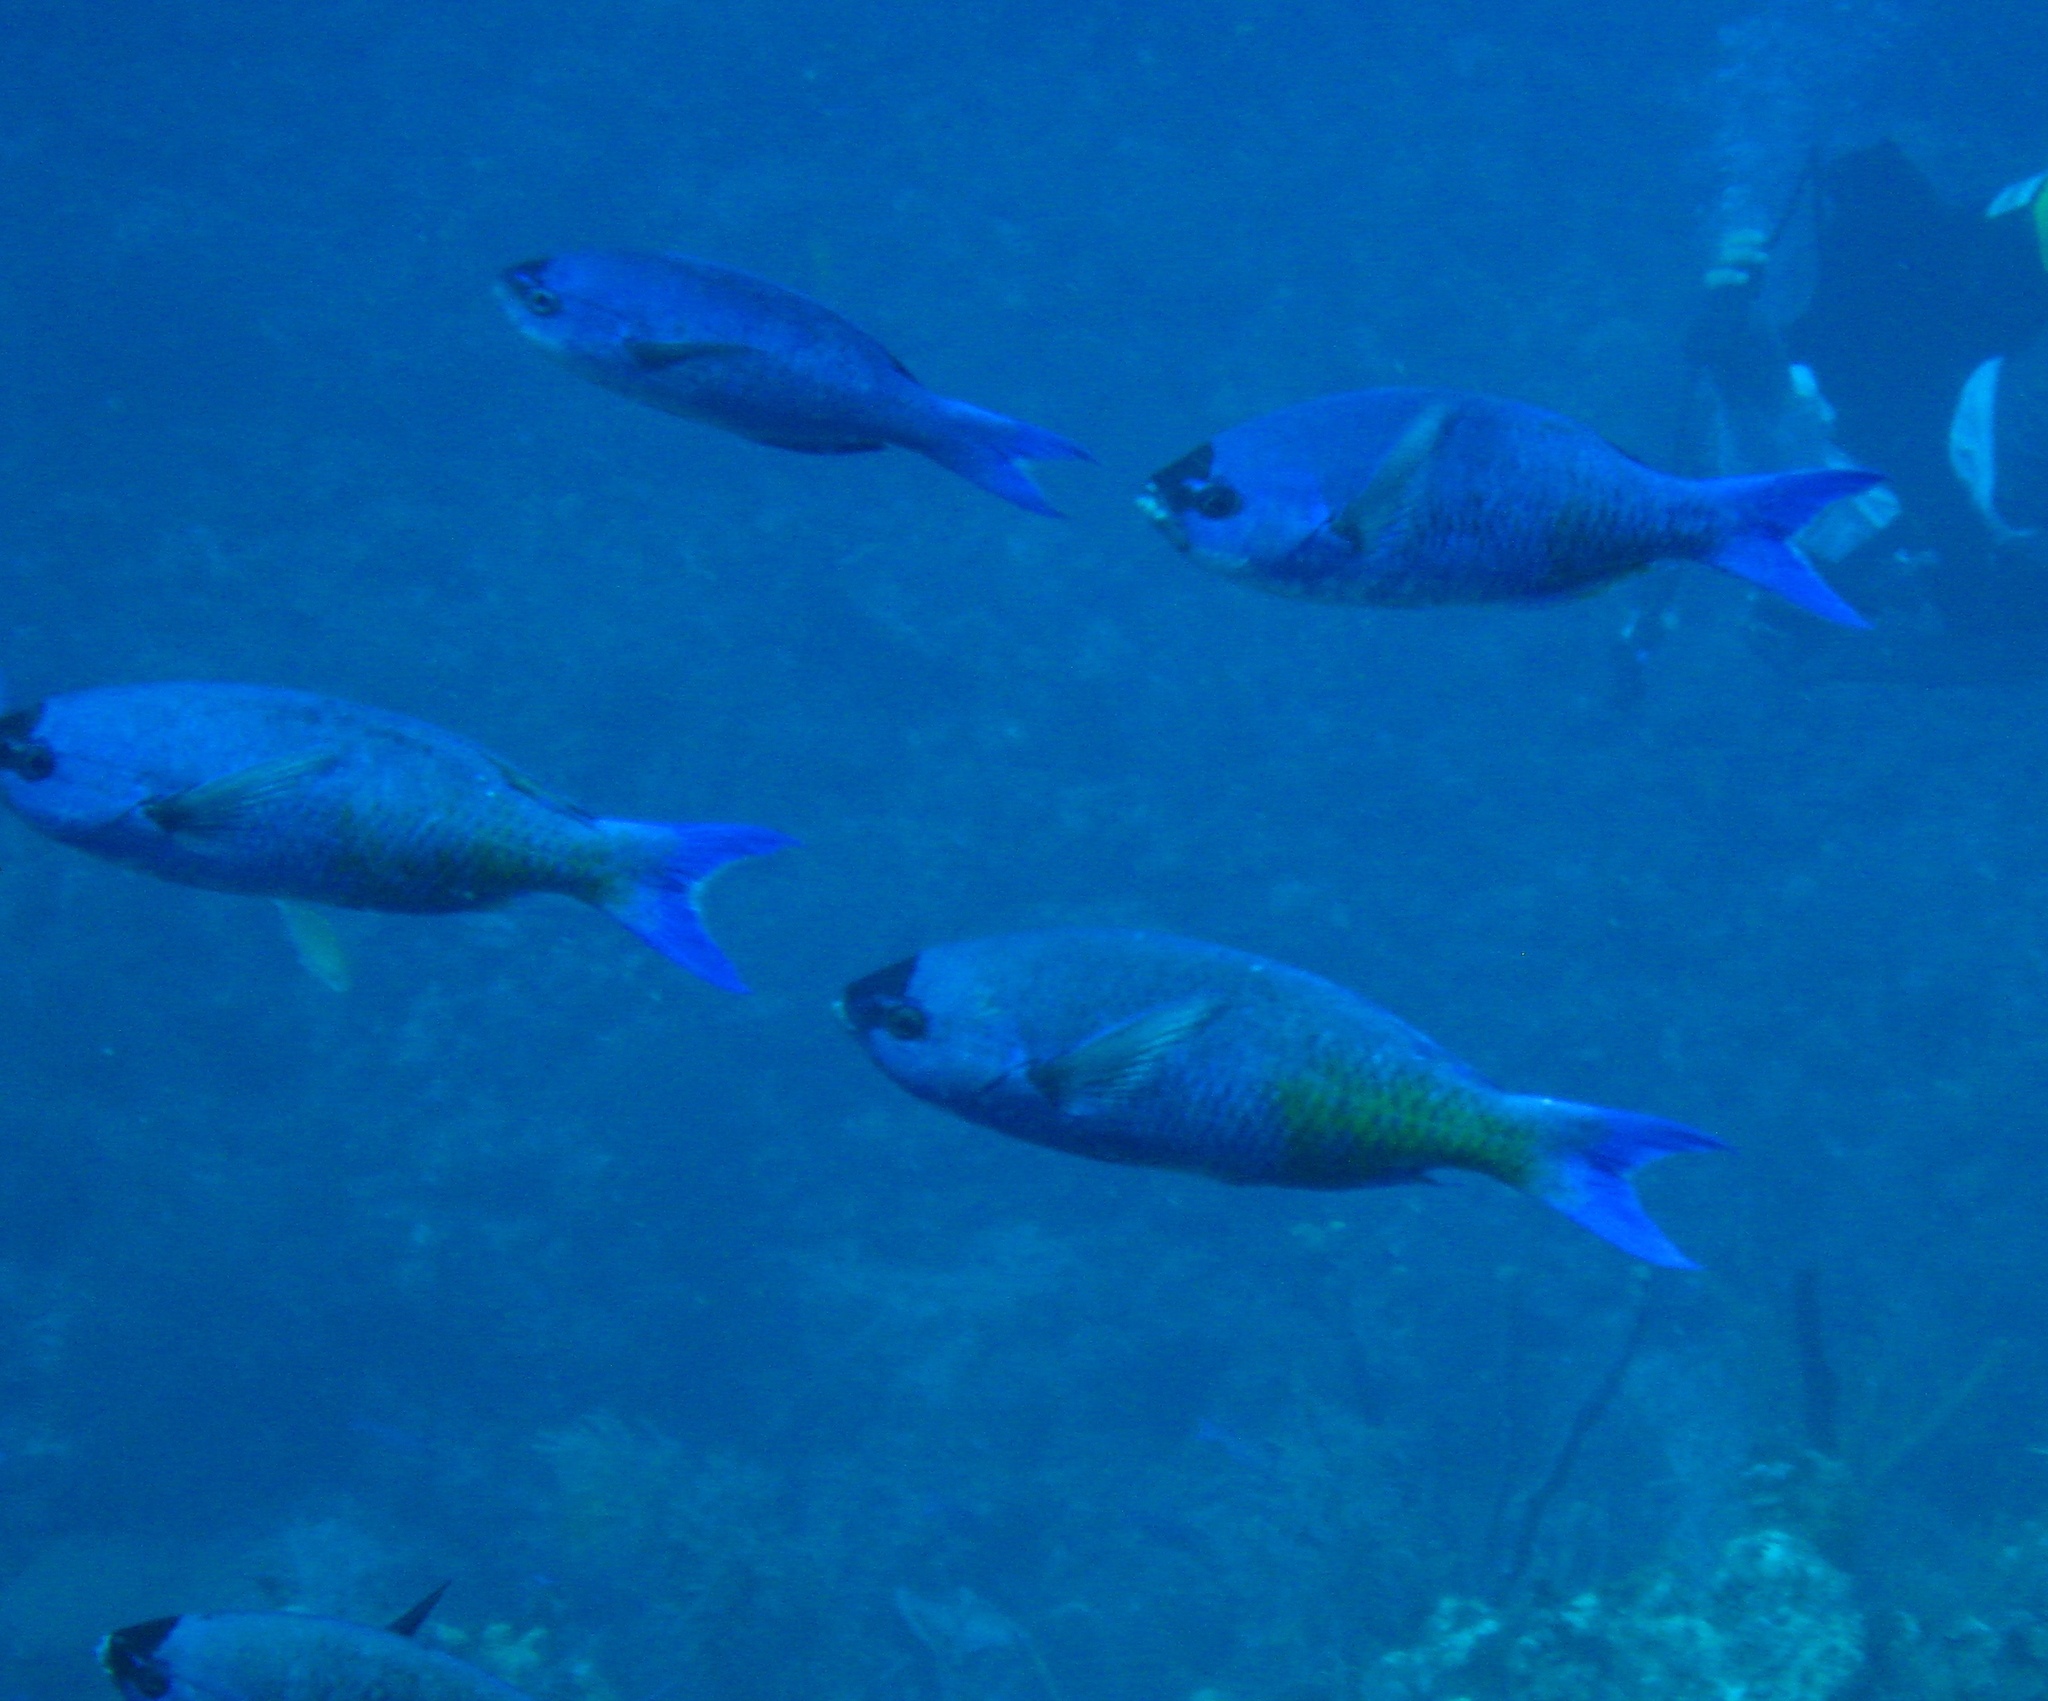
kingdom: Animalia
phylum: Chordata
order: Perciformes
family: Labridae
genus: Bodianus
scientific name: Bodianus
